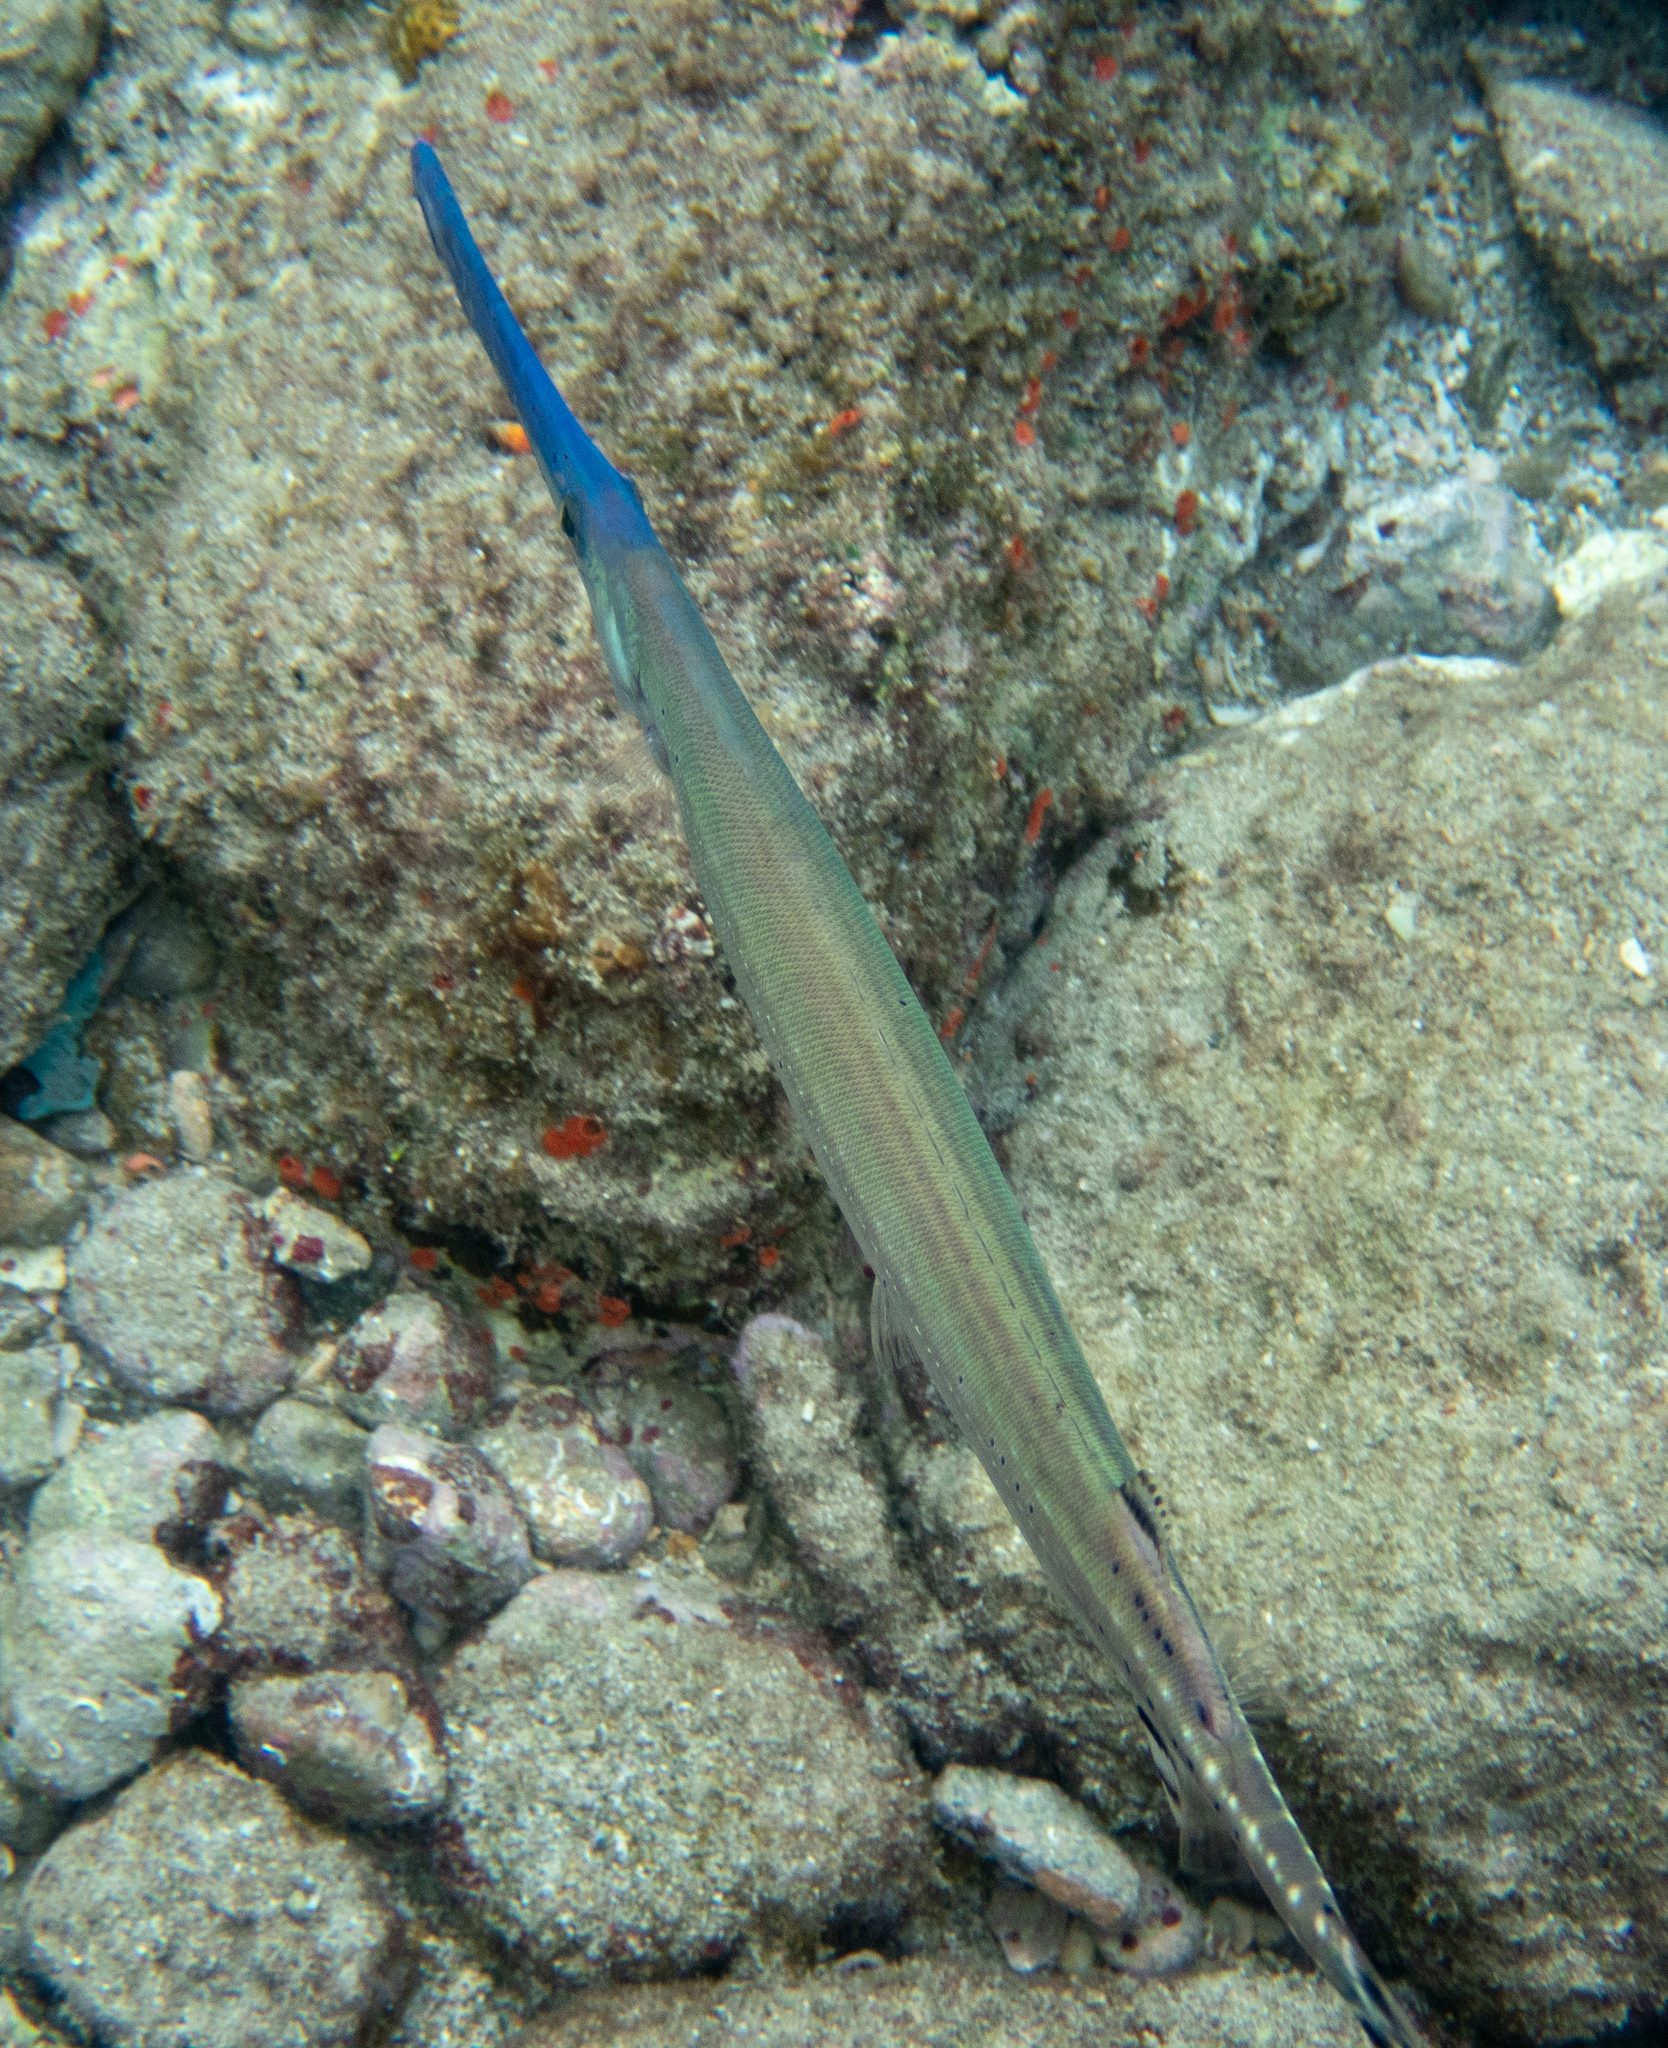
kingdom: Animalia
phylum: Chordata
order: Syngnathiformes
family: Aulostomidae
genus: Aulostomus
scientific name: Aulostomus maculatus
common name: West atlantic trumpetfish
